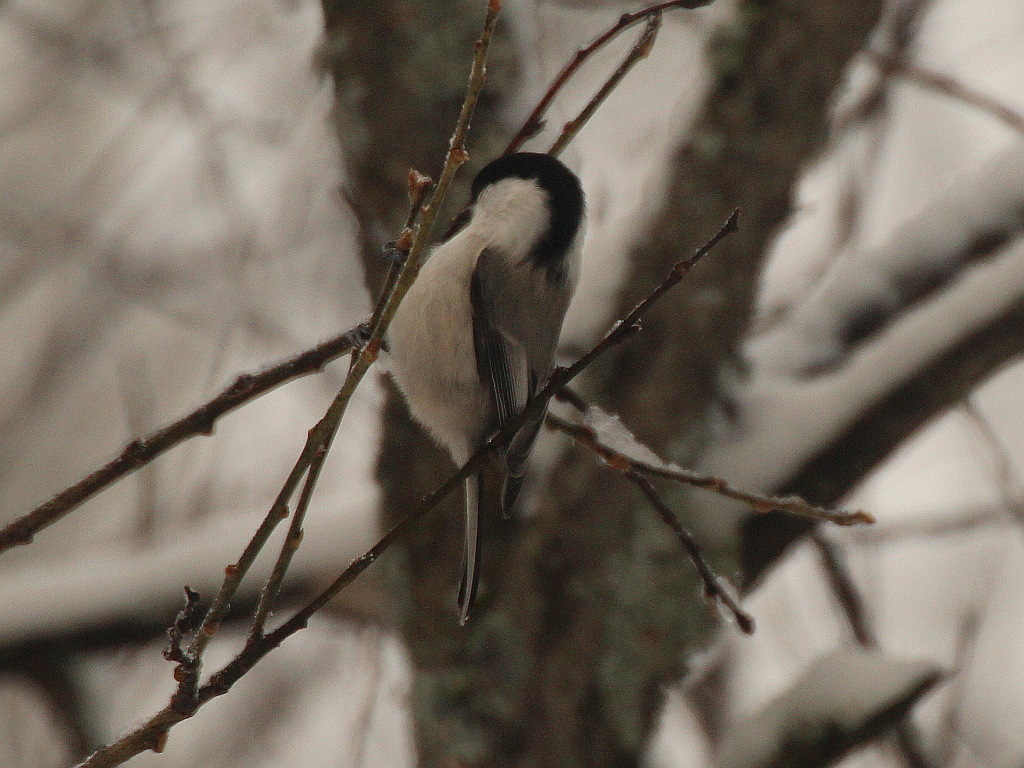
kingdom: Animalia
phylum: Chordata
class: Aves
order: Passeriformes
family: Paridae
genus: Poecile
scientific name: Poecile montanus
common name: Willow tit
